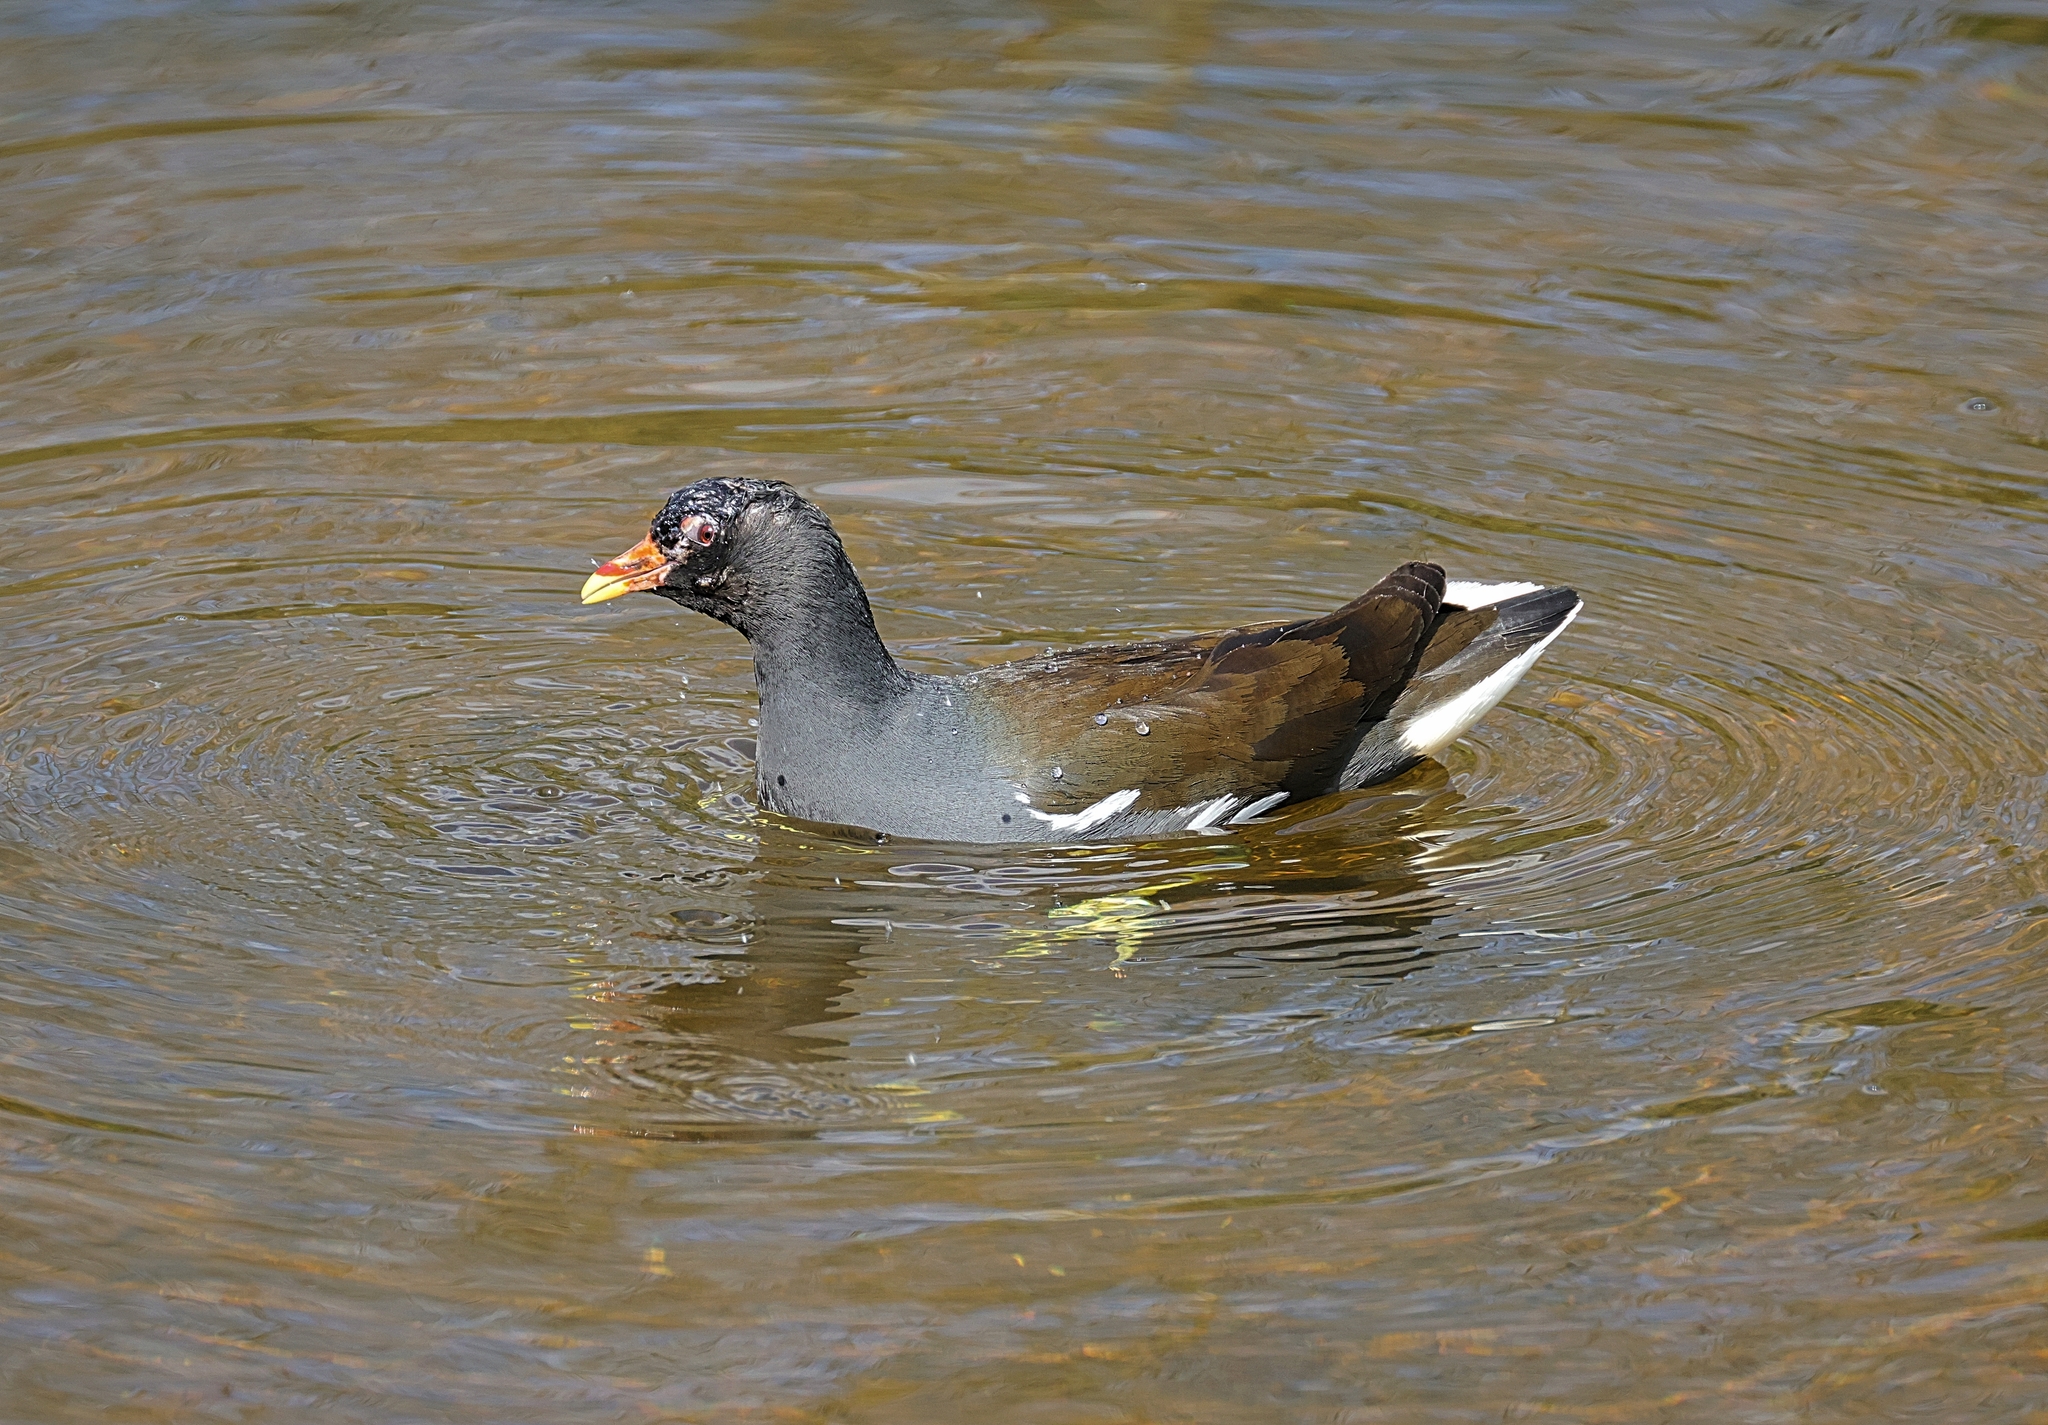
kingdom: Animalia
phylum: Chordata
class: Aves
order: Gruiformes
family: Rallidae
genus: Gallinula
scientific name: Gallinula chloropus
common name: Common moorhen
